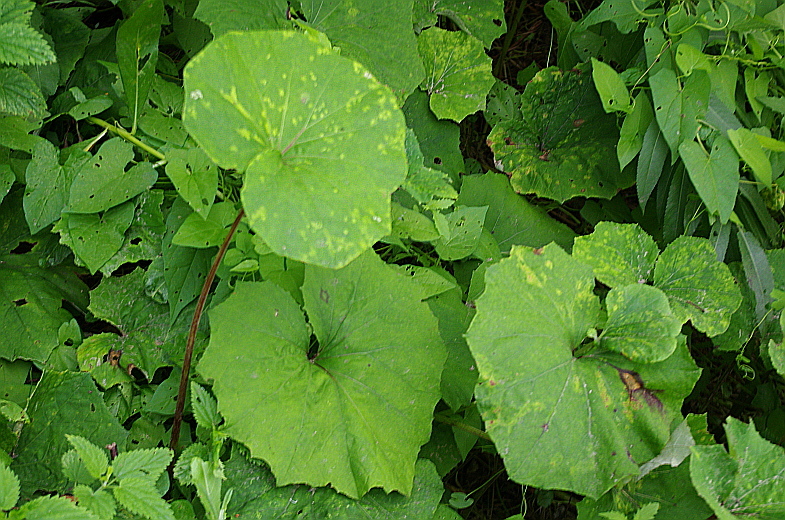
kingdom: Plantae
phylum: Tracheophyta
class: Magnoliopsida
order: Asterales
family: Asteraceae
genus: Tussilago
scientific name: Tussilago farfara
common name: Coltsfoot
